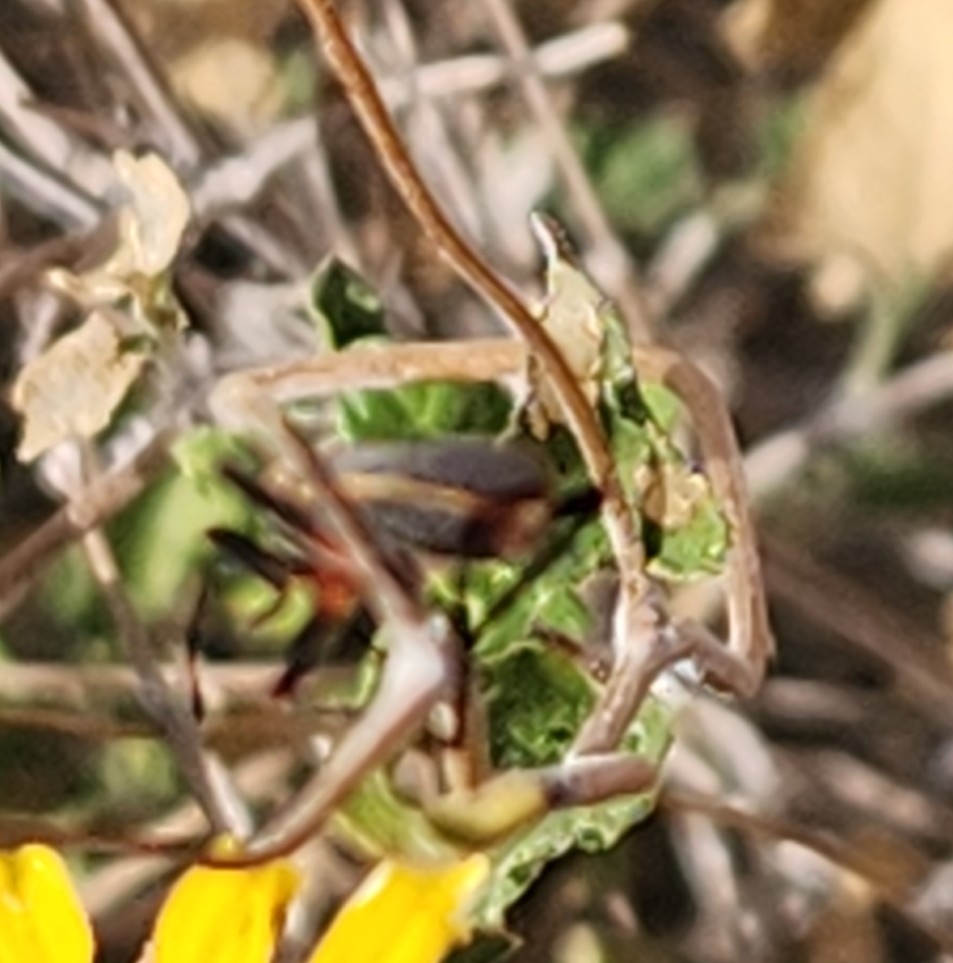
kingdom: Animalia
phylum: Arthropoda
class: Insecta
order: Hemiptera
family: Largidae
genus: Largus
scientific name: Largus californicus
